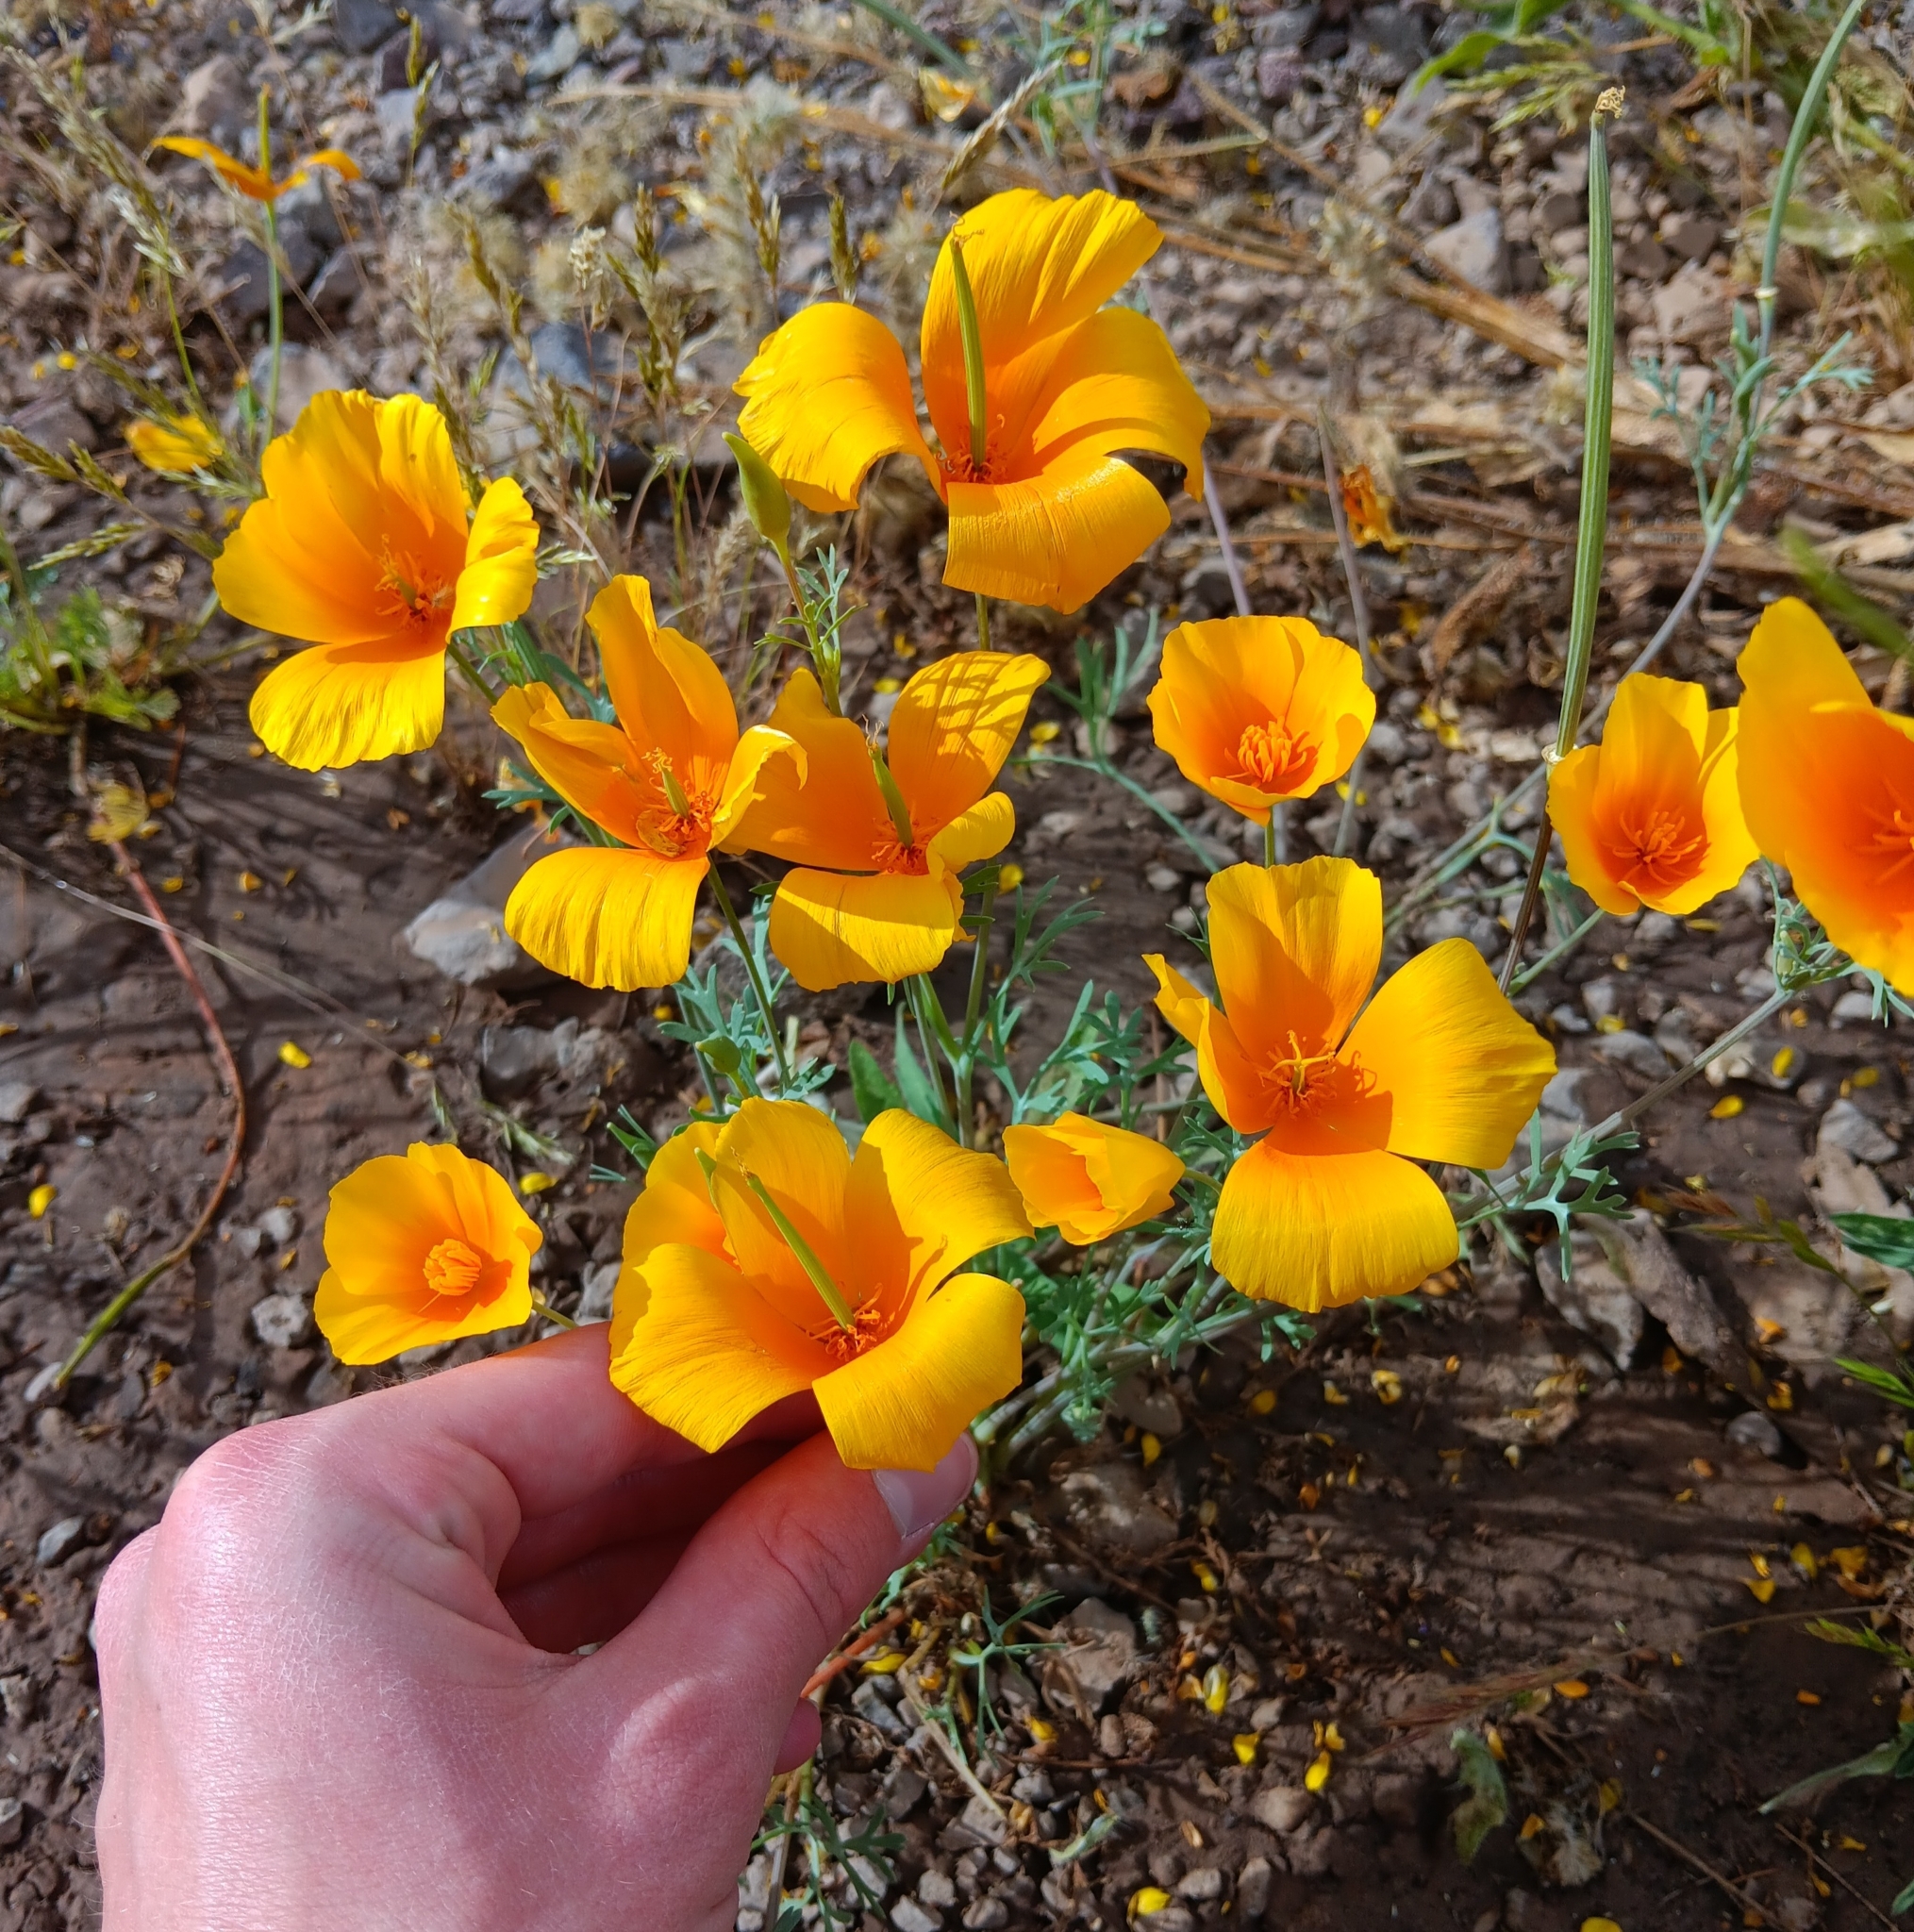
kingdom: Plantae
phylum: Tracheophyta
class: Magnoliopsida
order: Ranunculales
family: Papaveraceae
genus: Eschscholzia
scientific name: Eschscholzia californica
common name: California poppy
